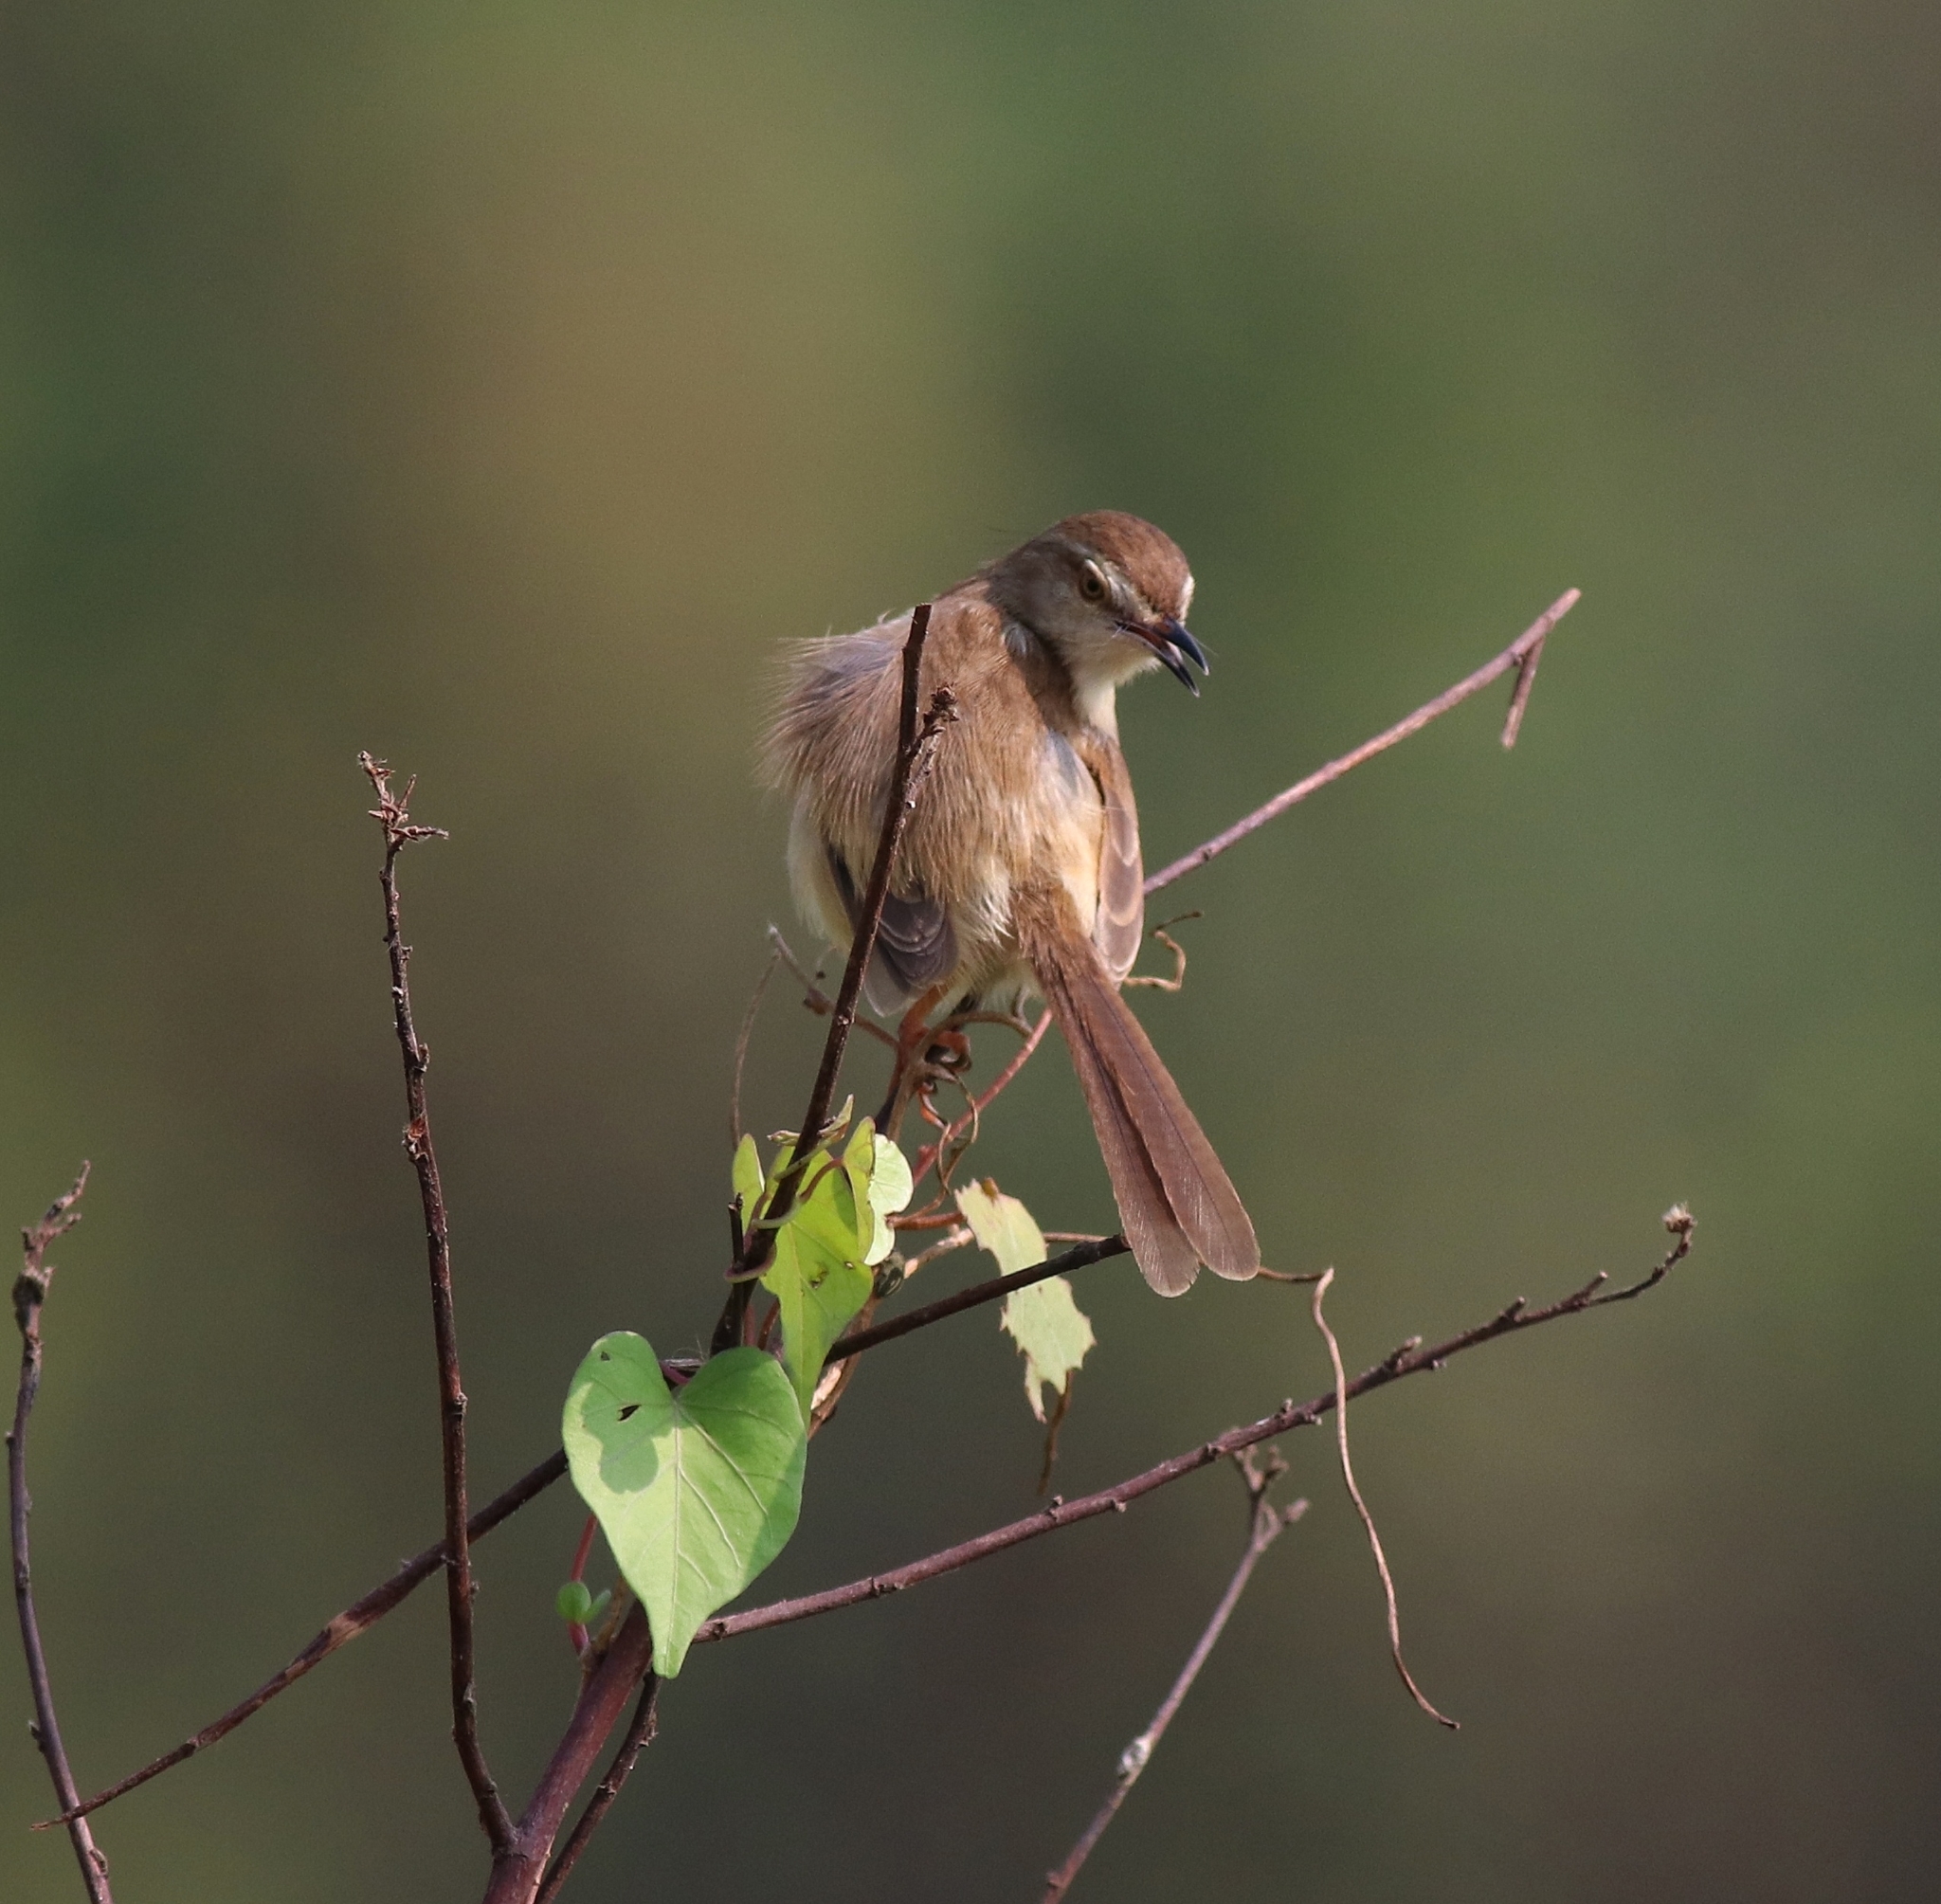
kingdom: Animalia
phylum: Chordata
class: Aves
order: Passeriformes
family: Cisticolidae
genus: Prinia
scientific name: Prinia inornata
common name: Plain prinia
